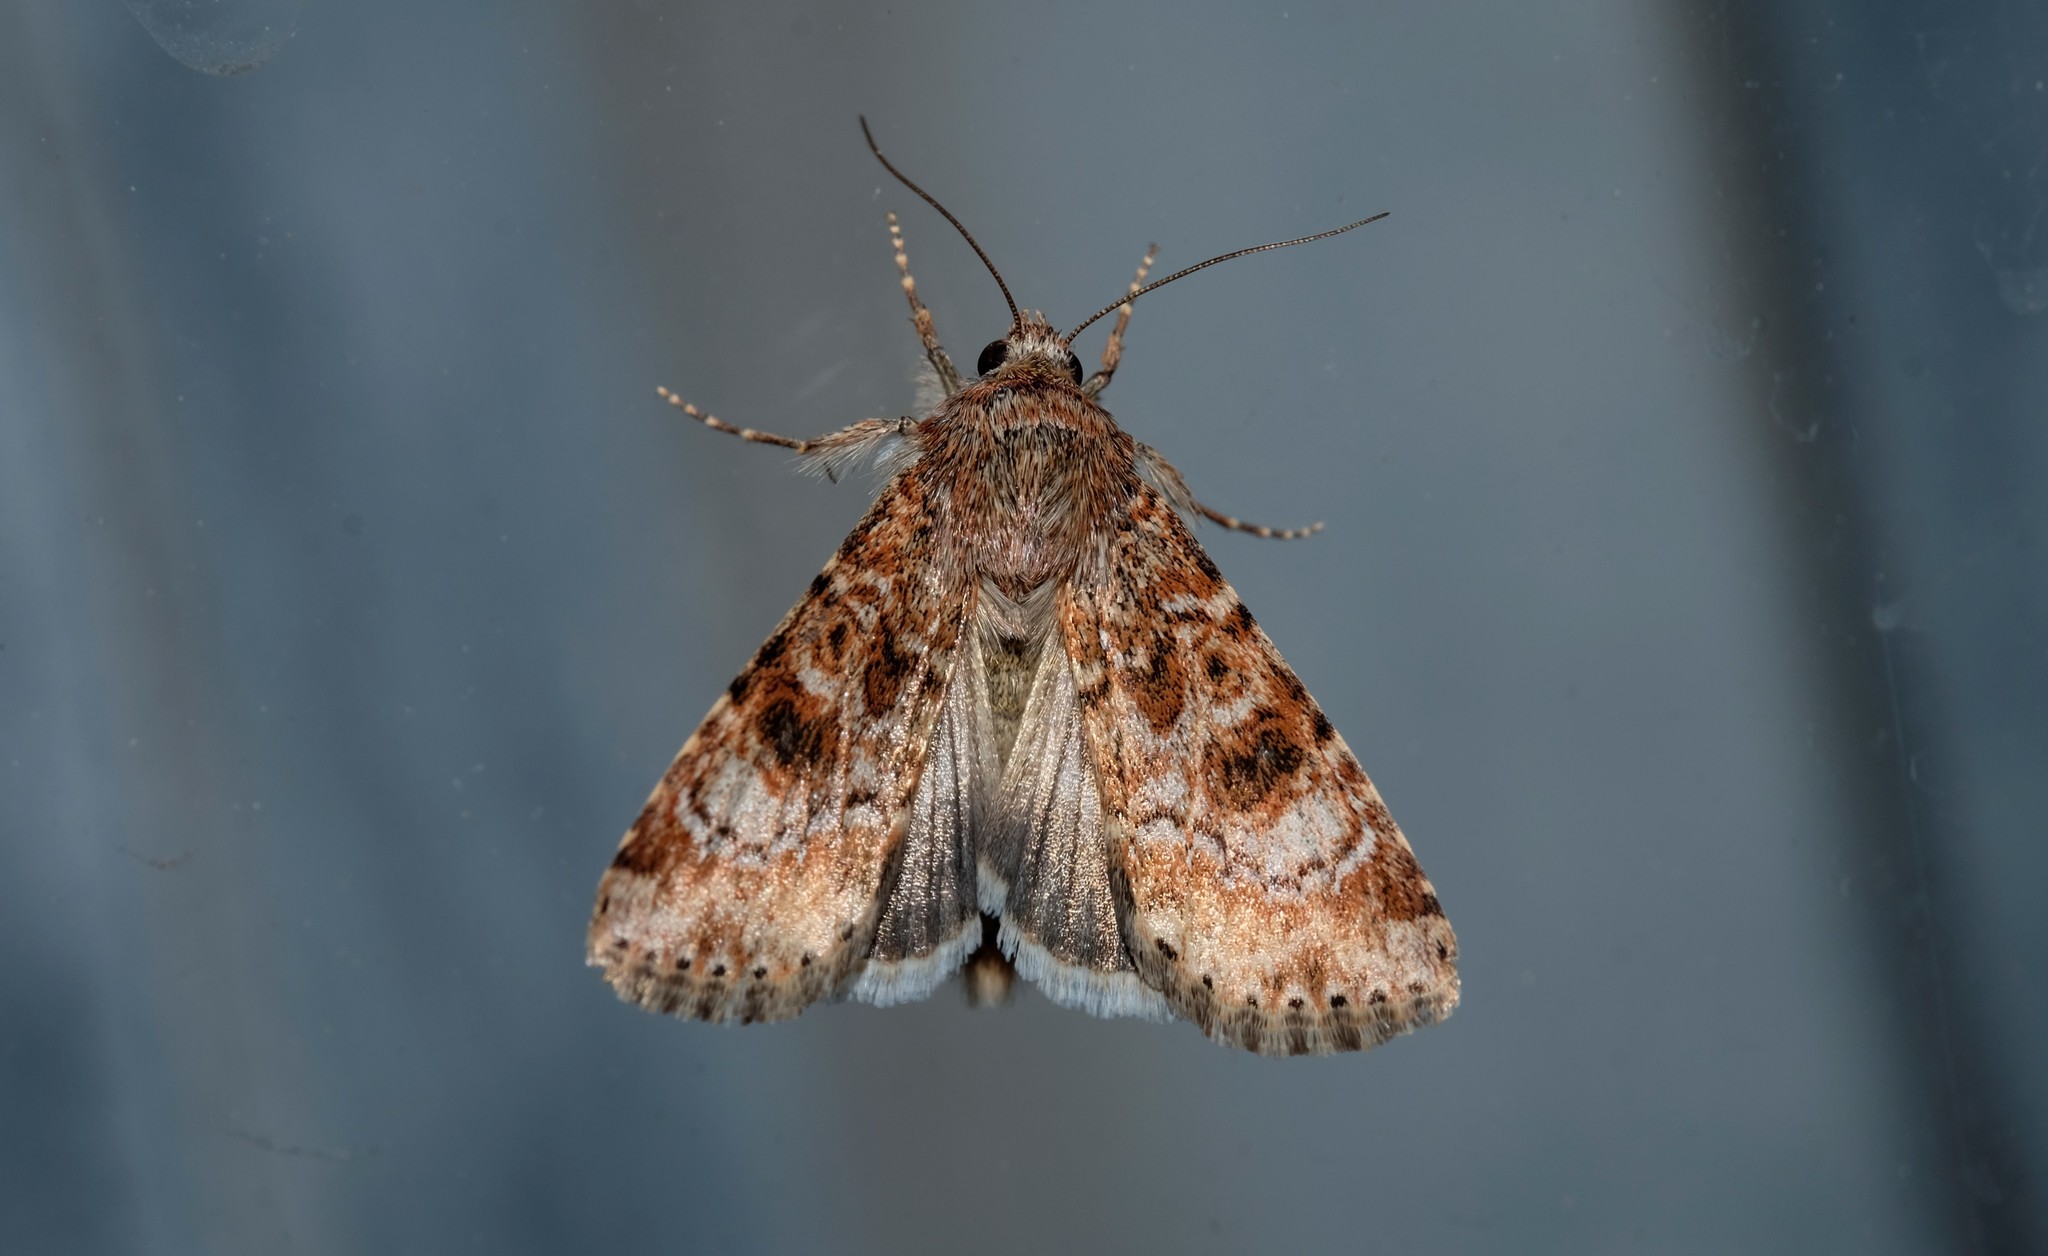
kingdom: Animalia
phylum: Arthropoda
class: Insecta
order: Lepidoptera
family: Noctuidae
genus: Heliothis
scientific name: Heliothis punctifera
